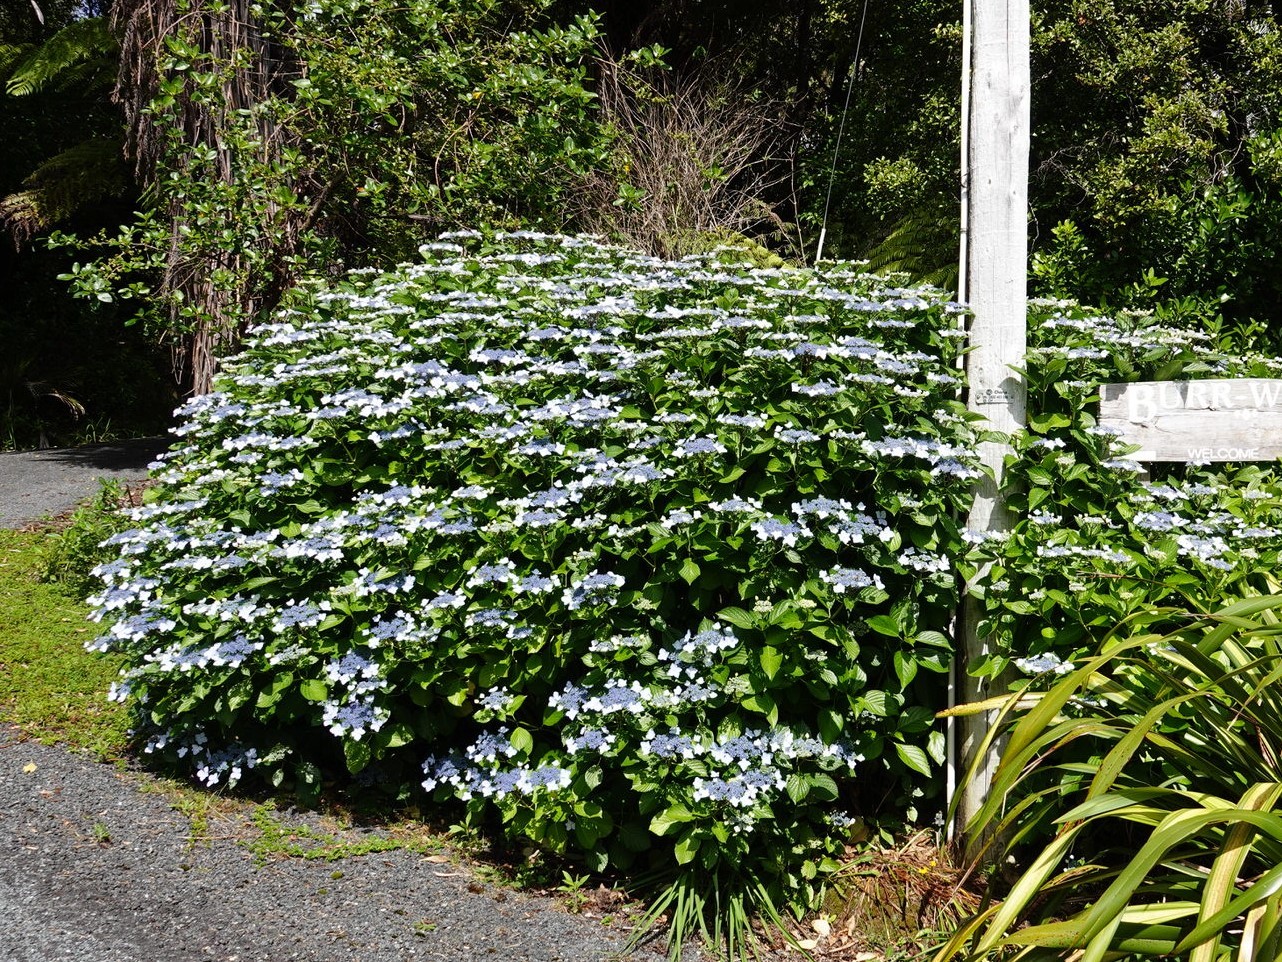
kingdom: Animalia
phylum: Arthropoda
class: Insecta
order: Hymenoptera
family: Apidae
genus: Bombus
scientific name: Bombus terrestris
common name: Buff-tailed bumblebee
